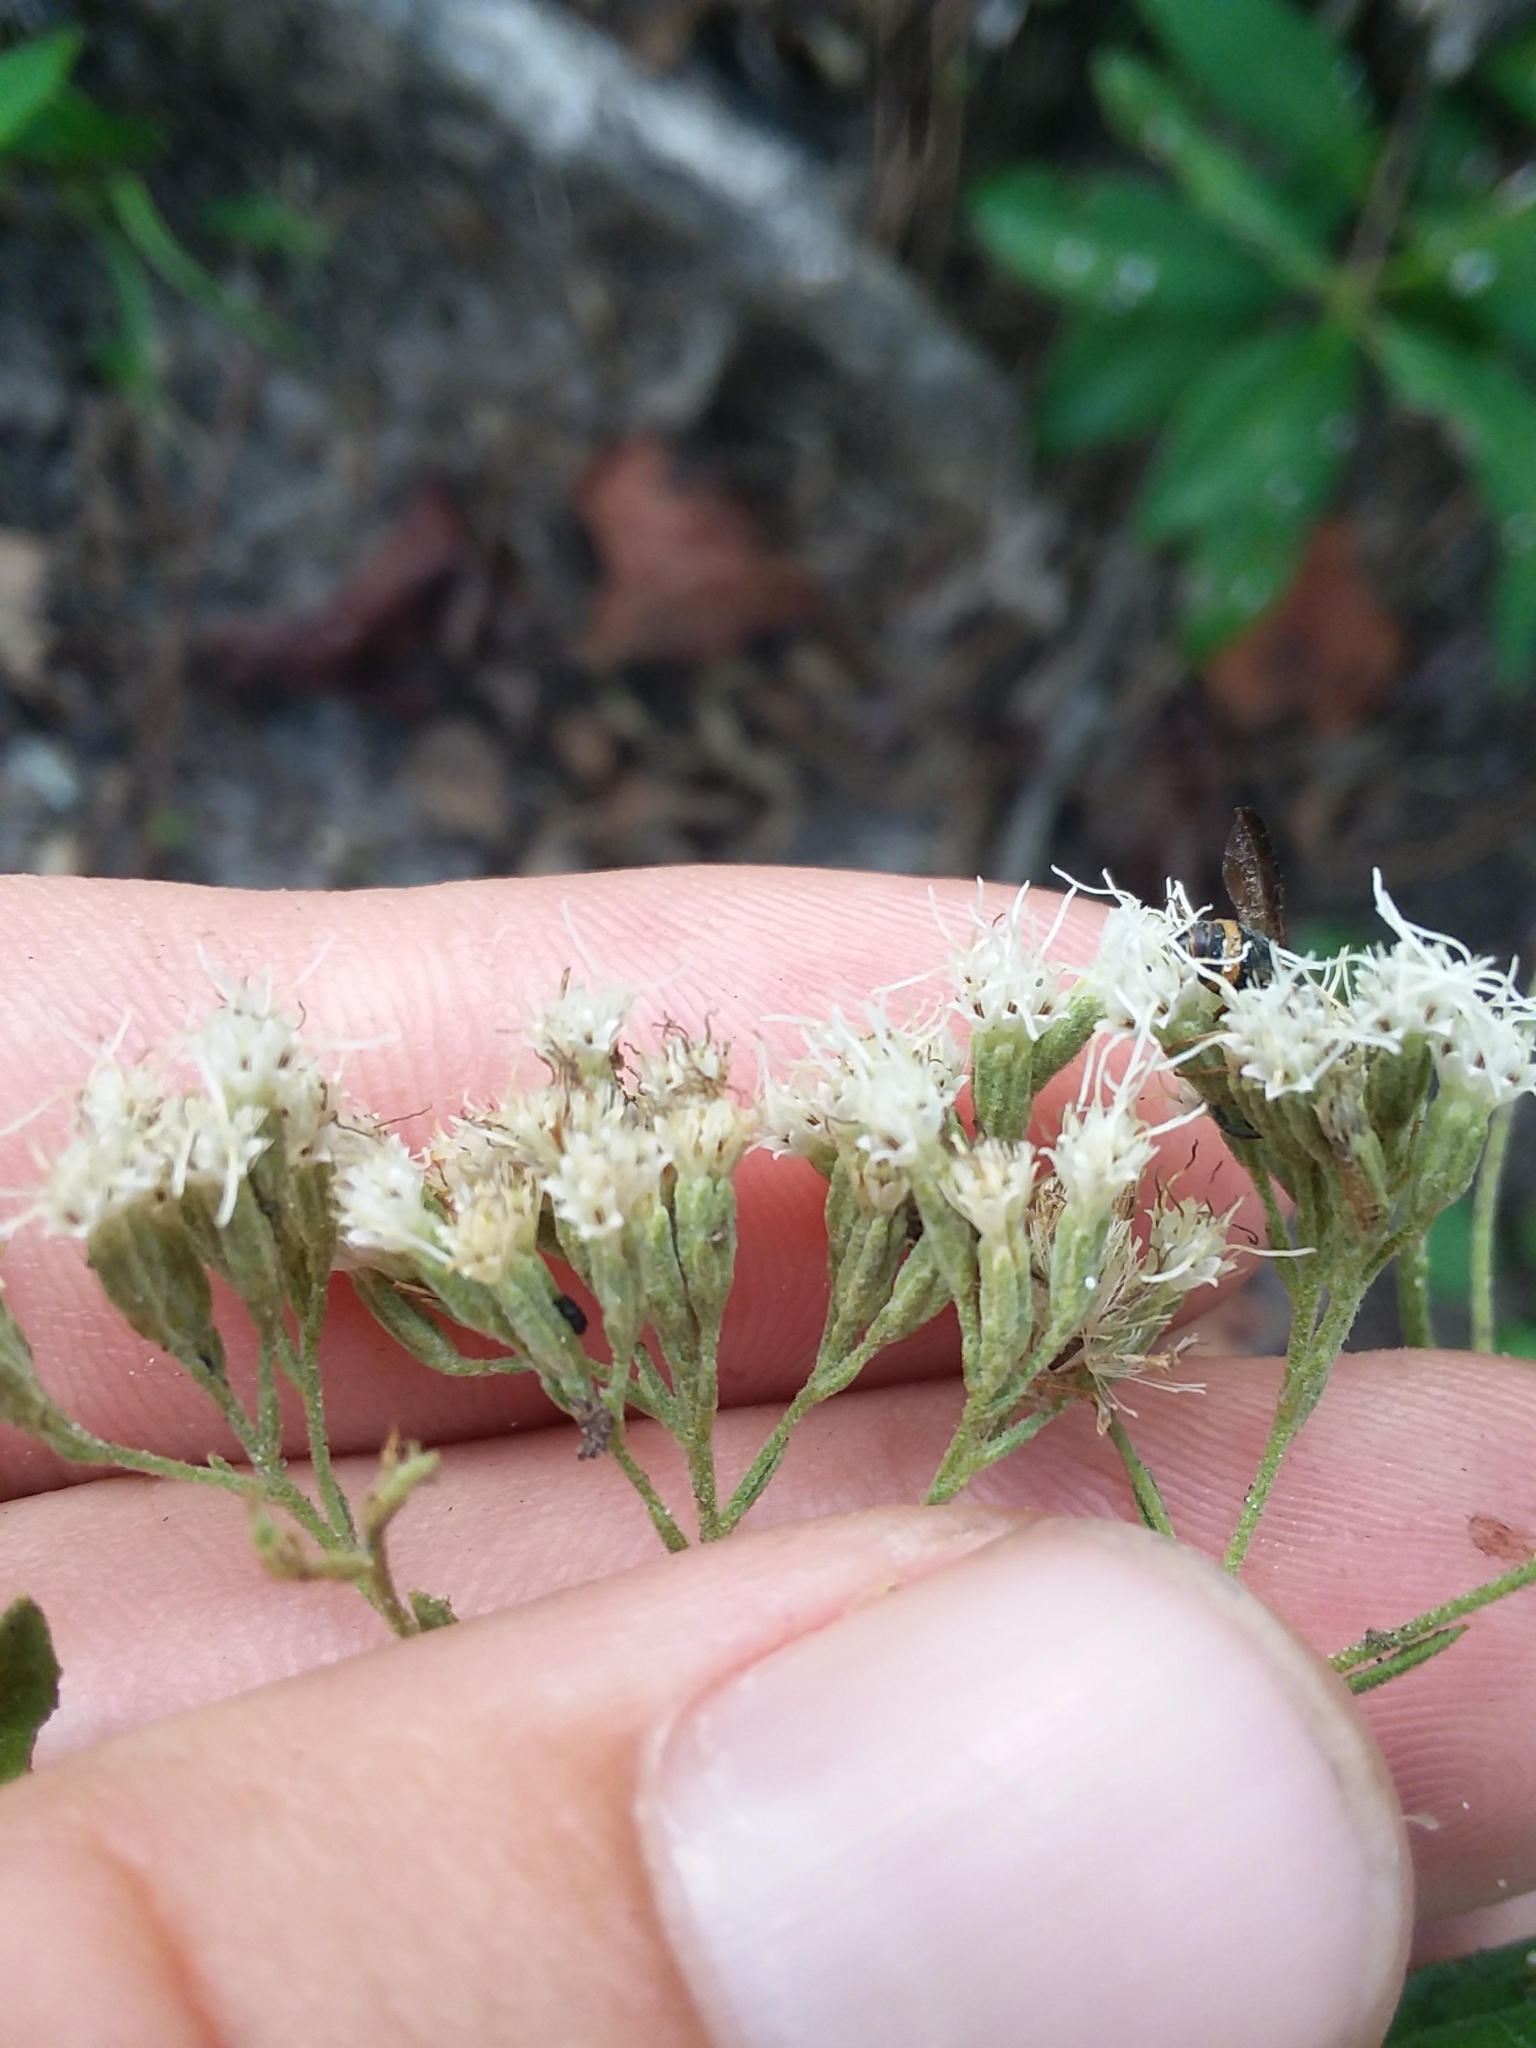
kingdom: Plantae
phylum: Tracheophyta
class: Magnoliopsida
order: Asterales
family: Asteraceae
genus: Eupatorium
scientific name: Eupatorium semiserratum
